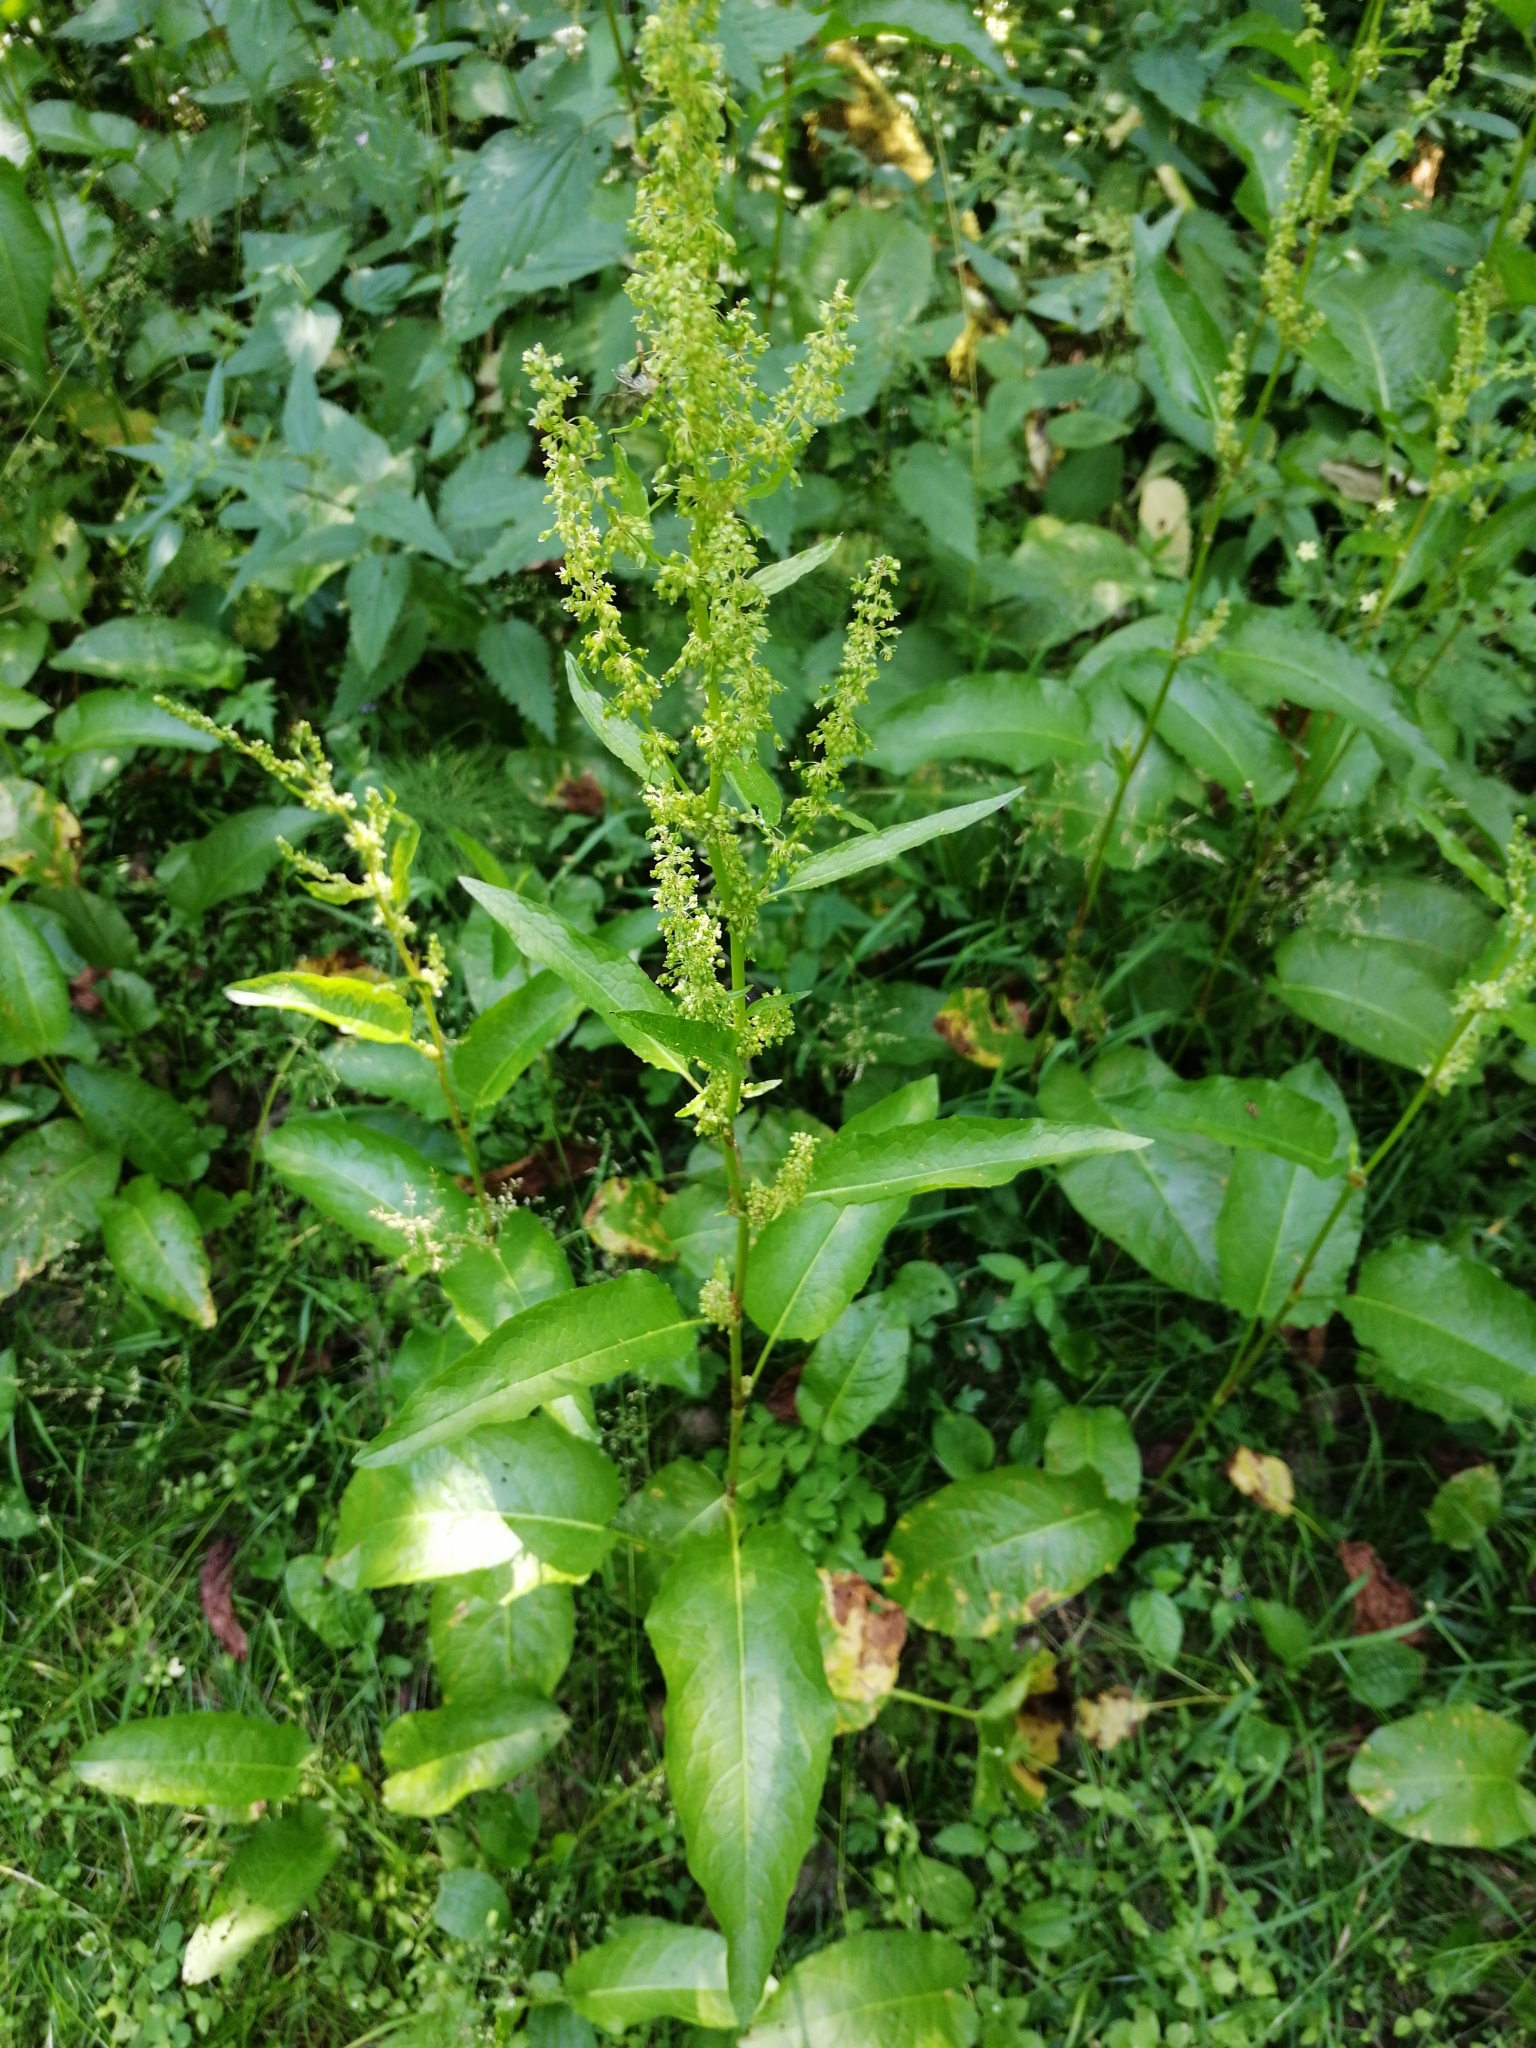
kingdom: Plantae
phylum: Tracheophyta
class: Magnoliopsida
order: Caryophyllales
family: Polygonaceae
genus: Rumex
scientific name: Rumex obtusifolius
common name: Bitter dock
